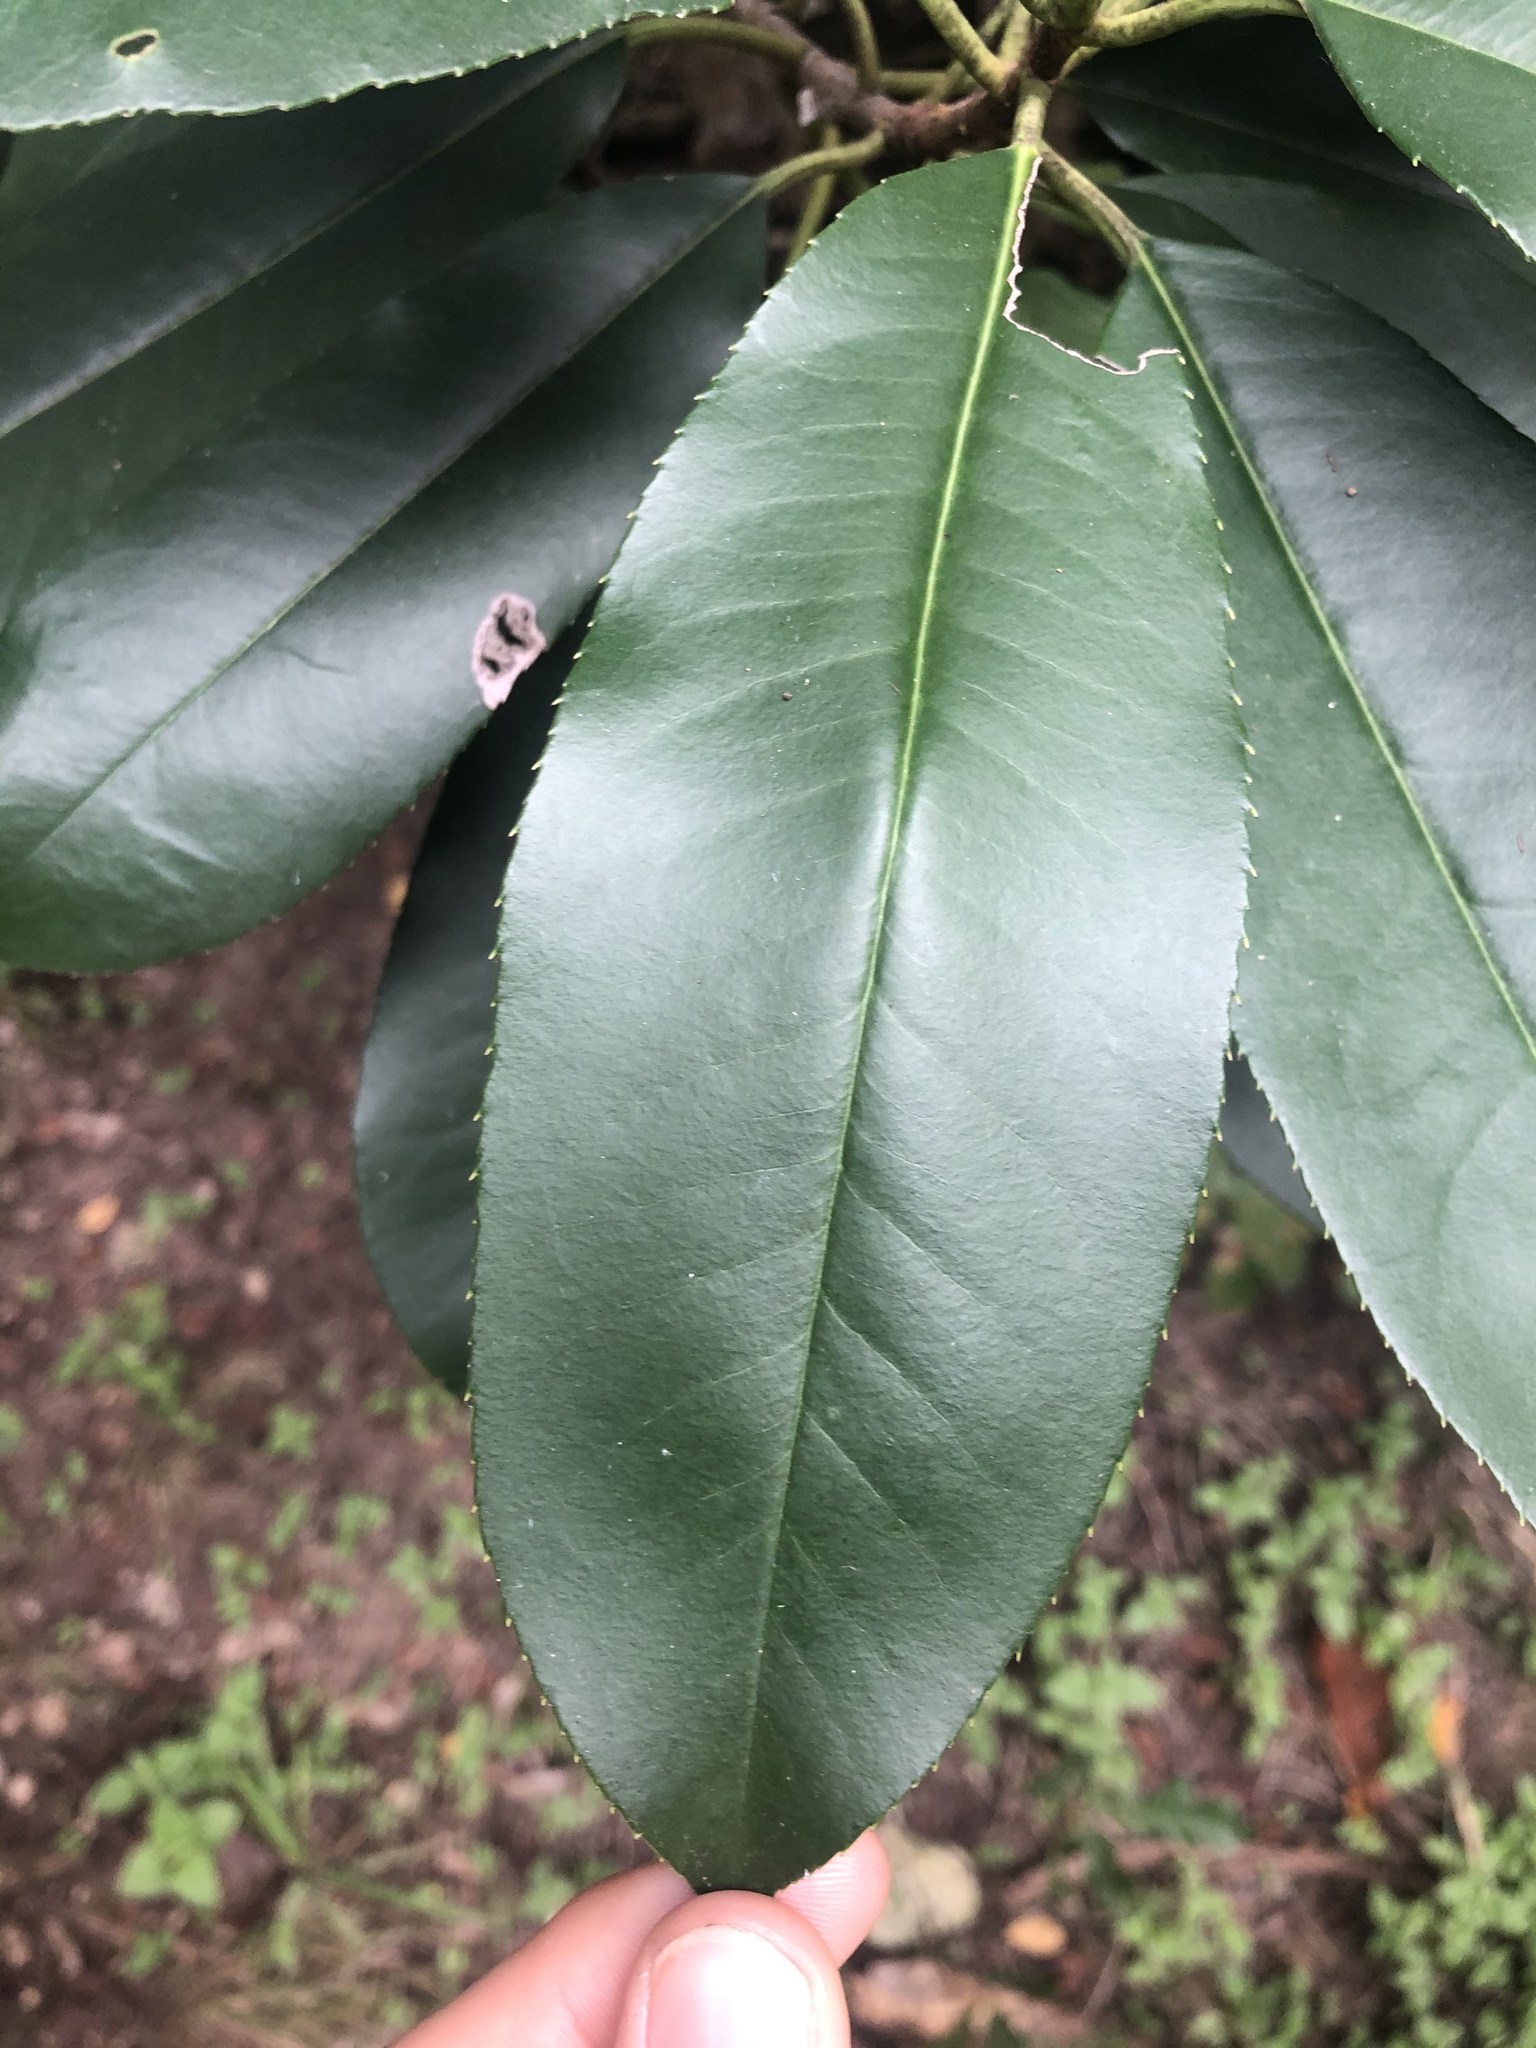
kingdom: Plantae
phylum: Tracheophyta
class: Magnoliopsida
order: Rosales
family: Rosaceae
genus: Photinia
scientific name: Photinia serratifolia
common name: Taiwanese photinia
